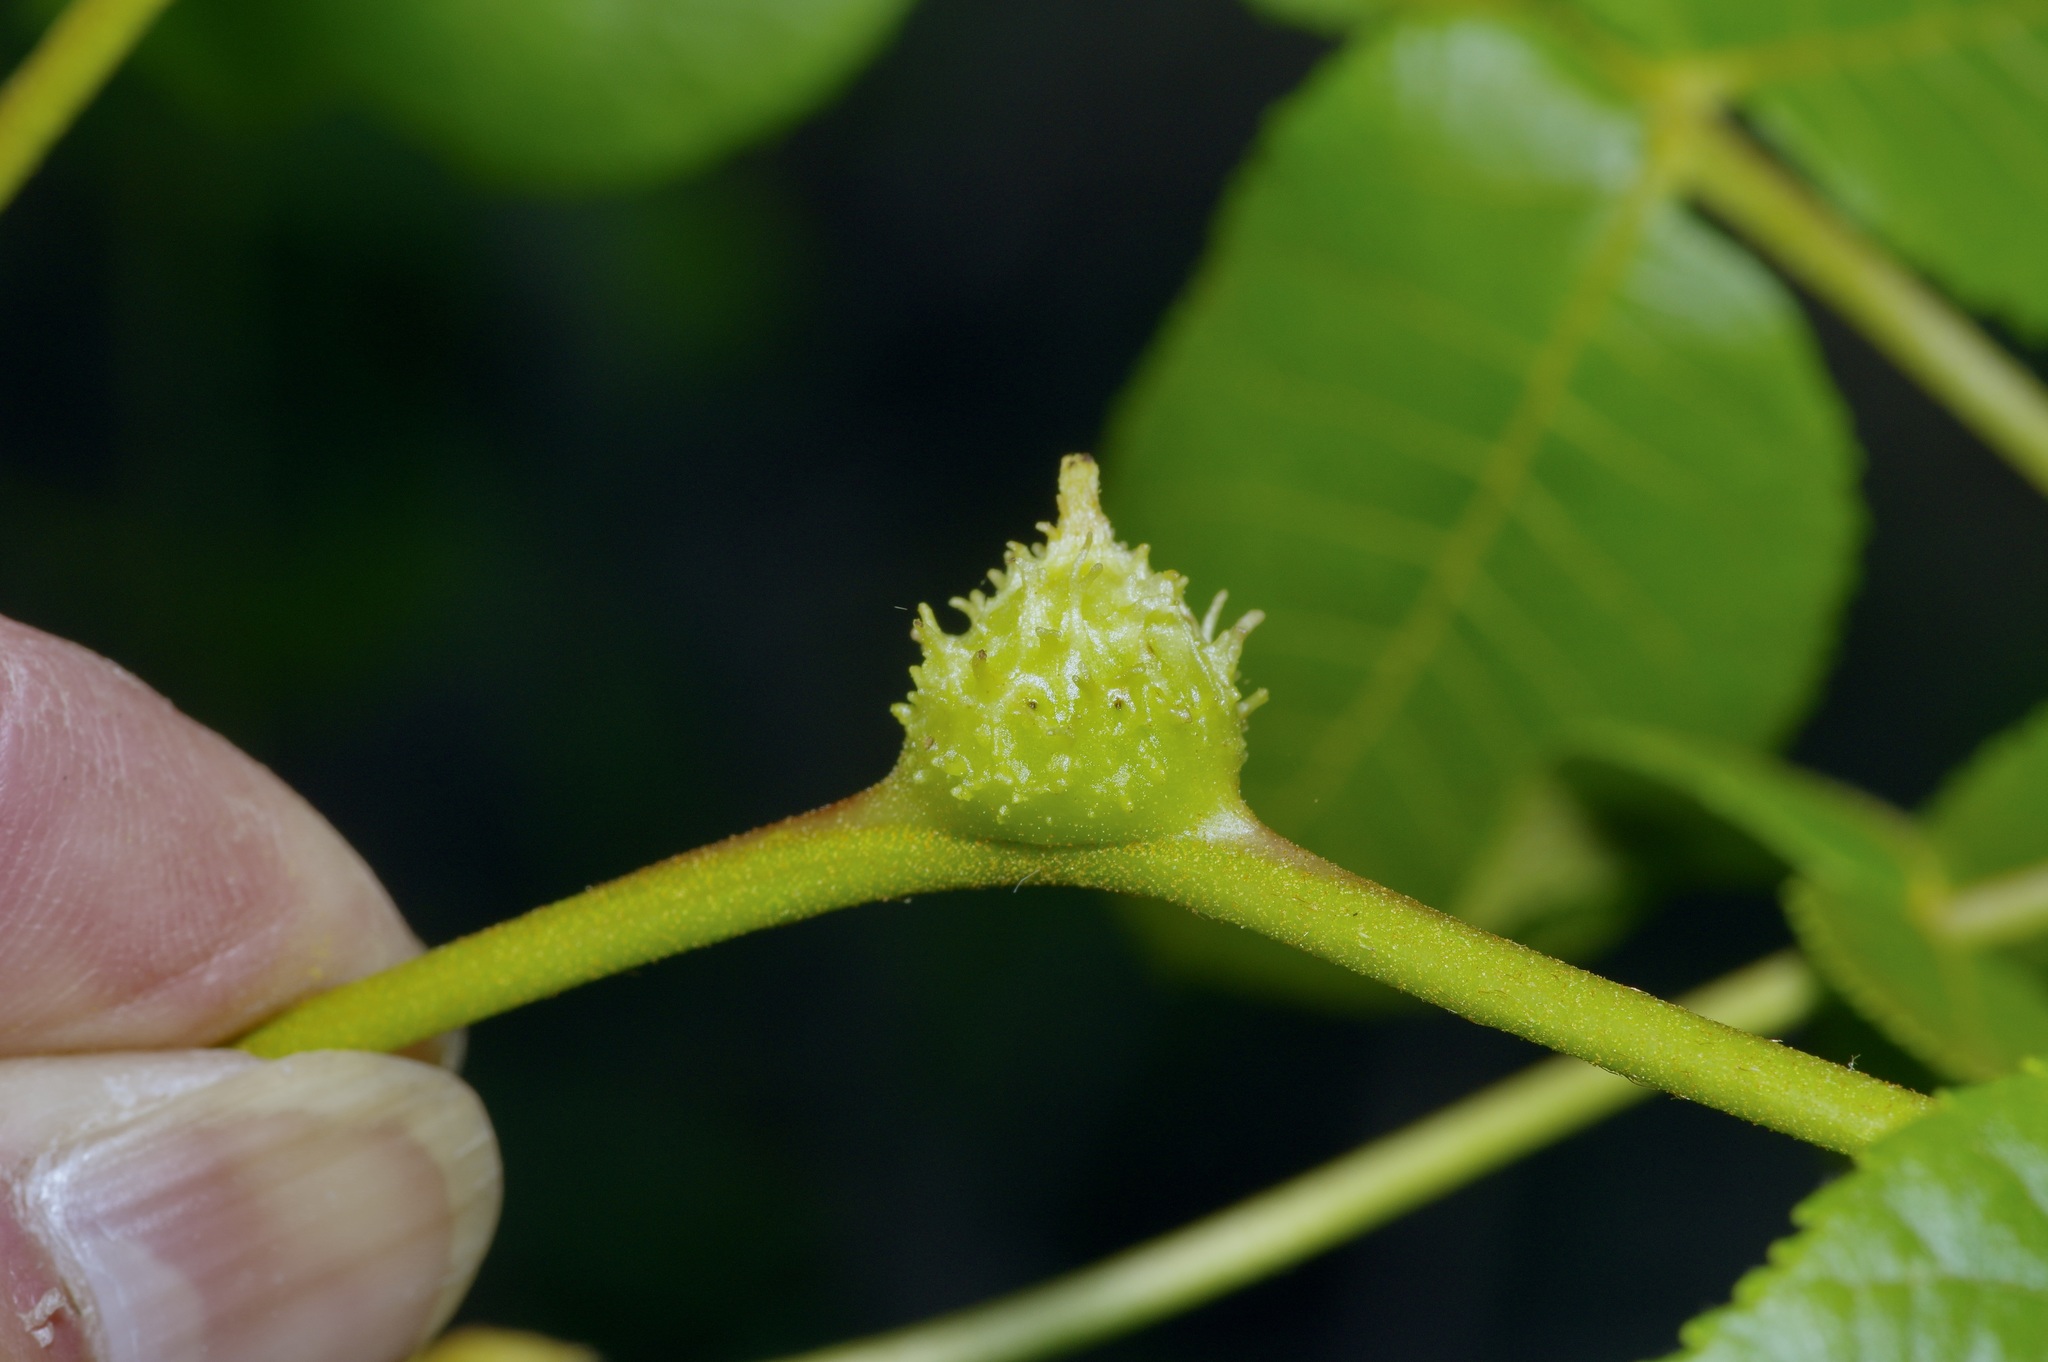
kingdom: Animalia
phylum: Arthropoda
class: Insecta
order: Hemiptera
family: Phylloxeridae
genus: Phylloxera
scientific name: Phylloxera spinosa
